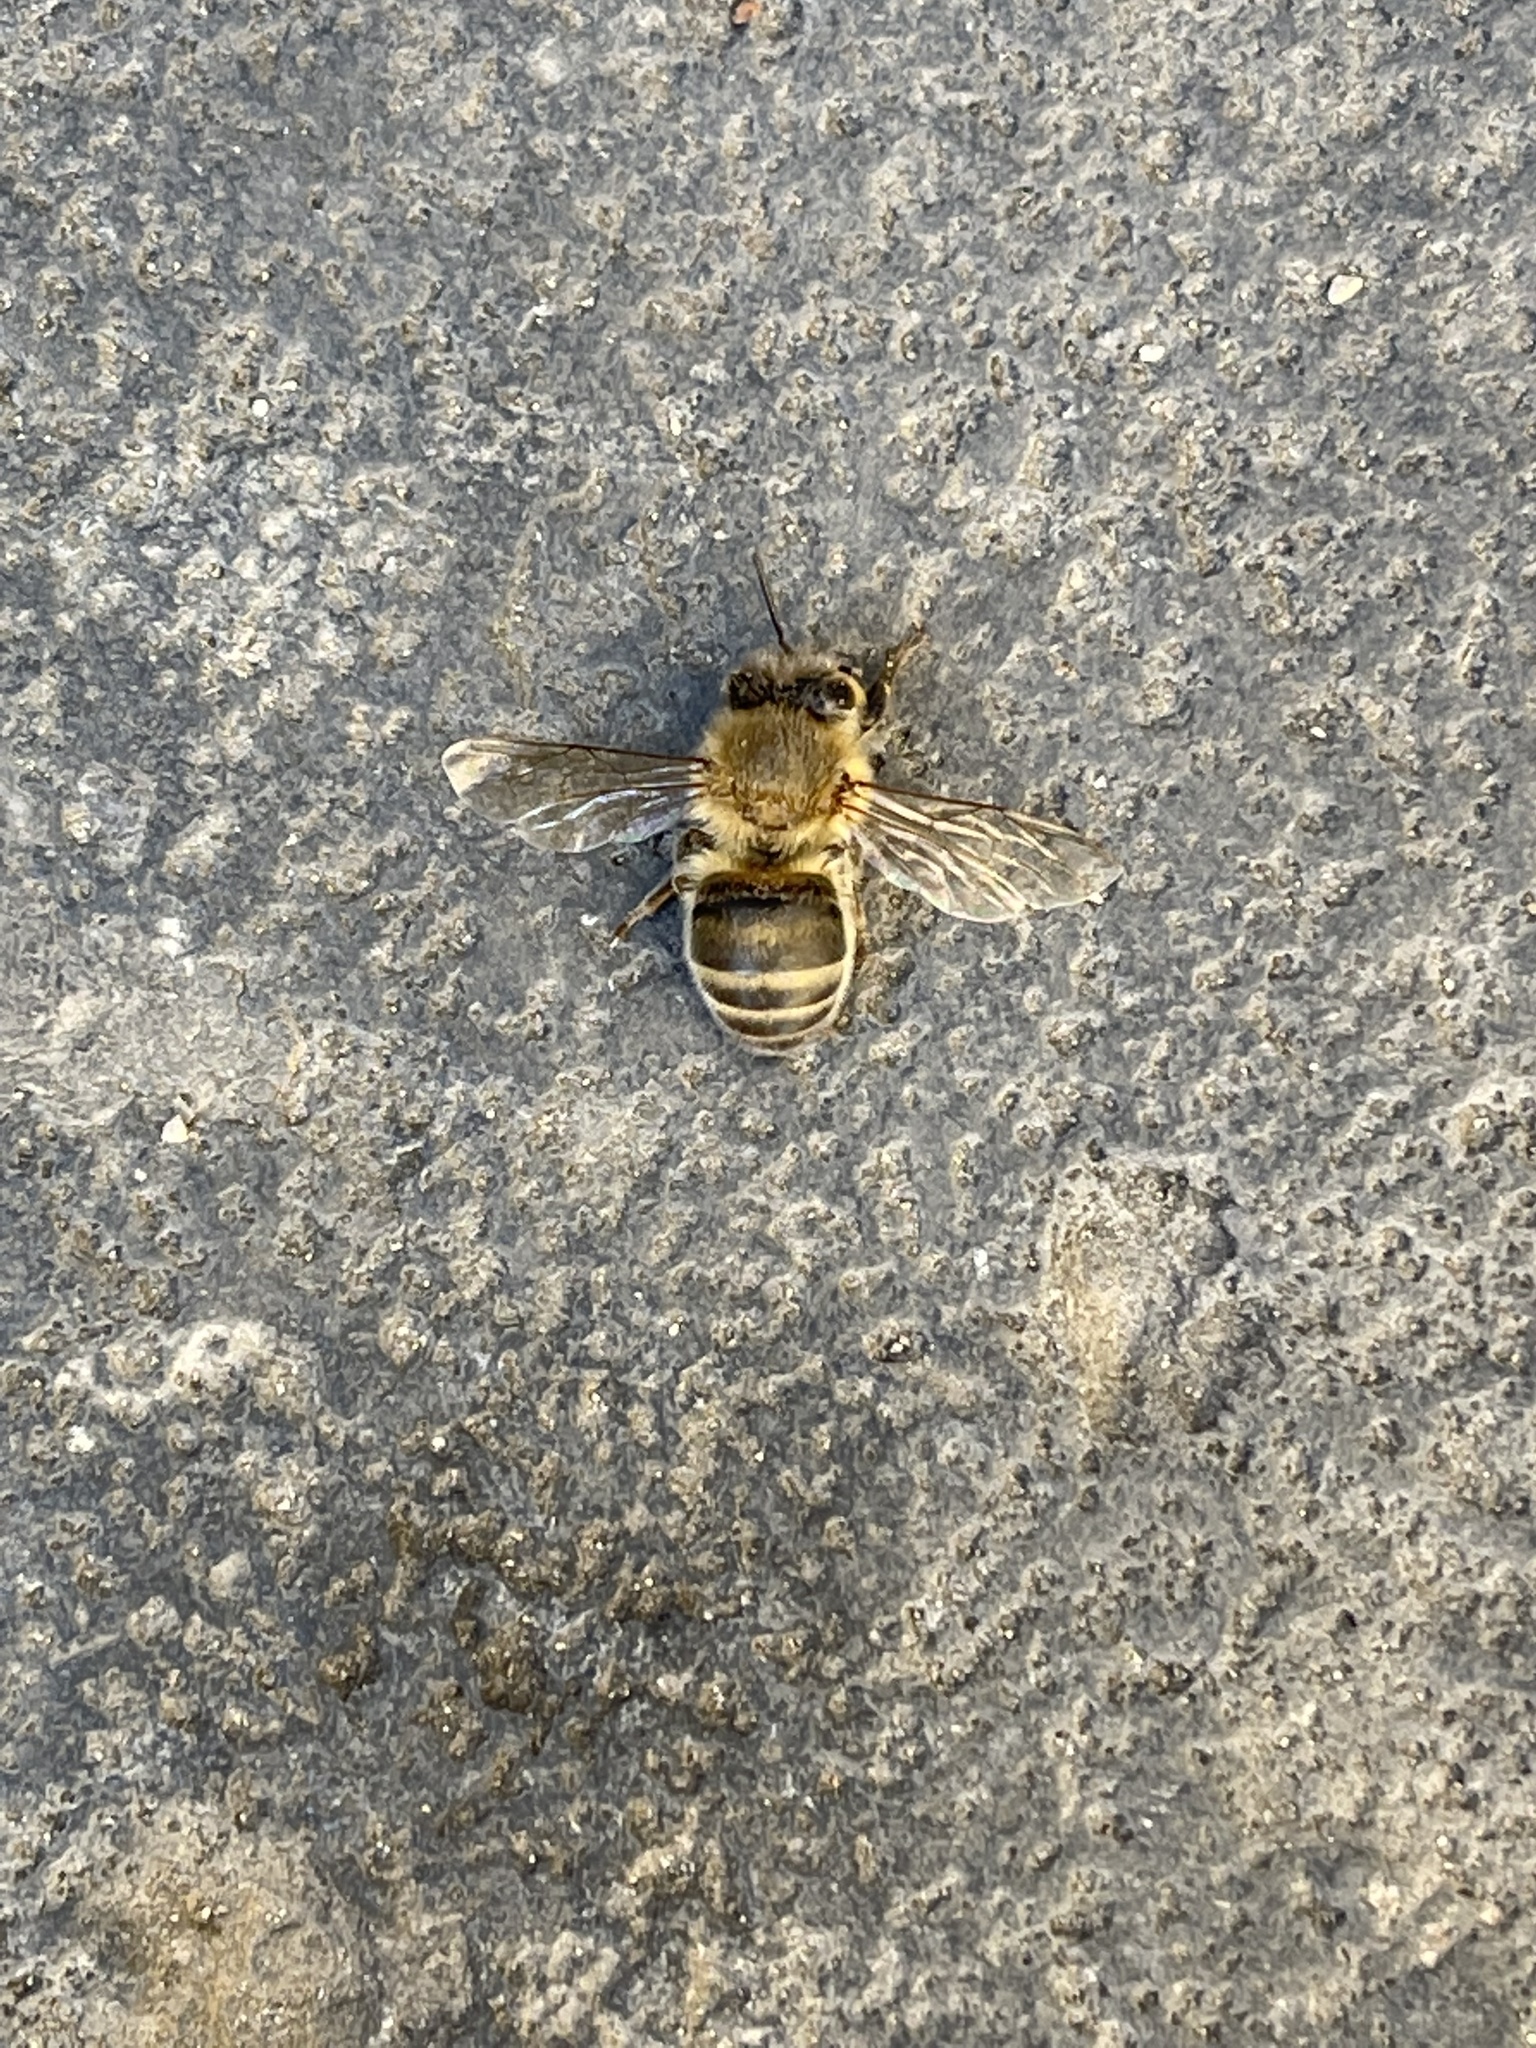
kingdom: Animalia
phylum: Arthropoda
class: Insecta
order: Hymenoptera
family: Apidae
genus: Apis
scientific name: Apis mellifera
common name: Honey bee
